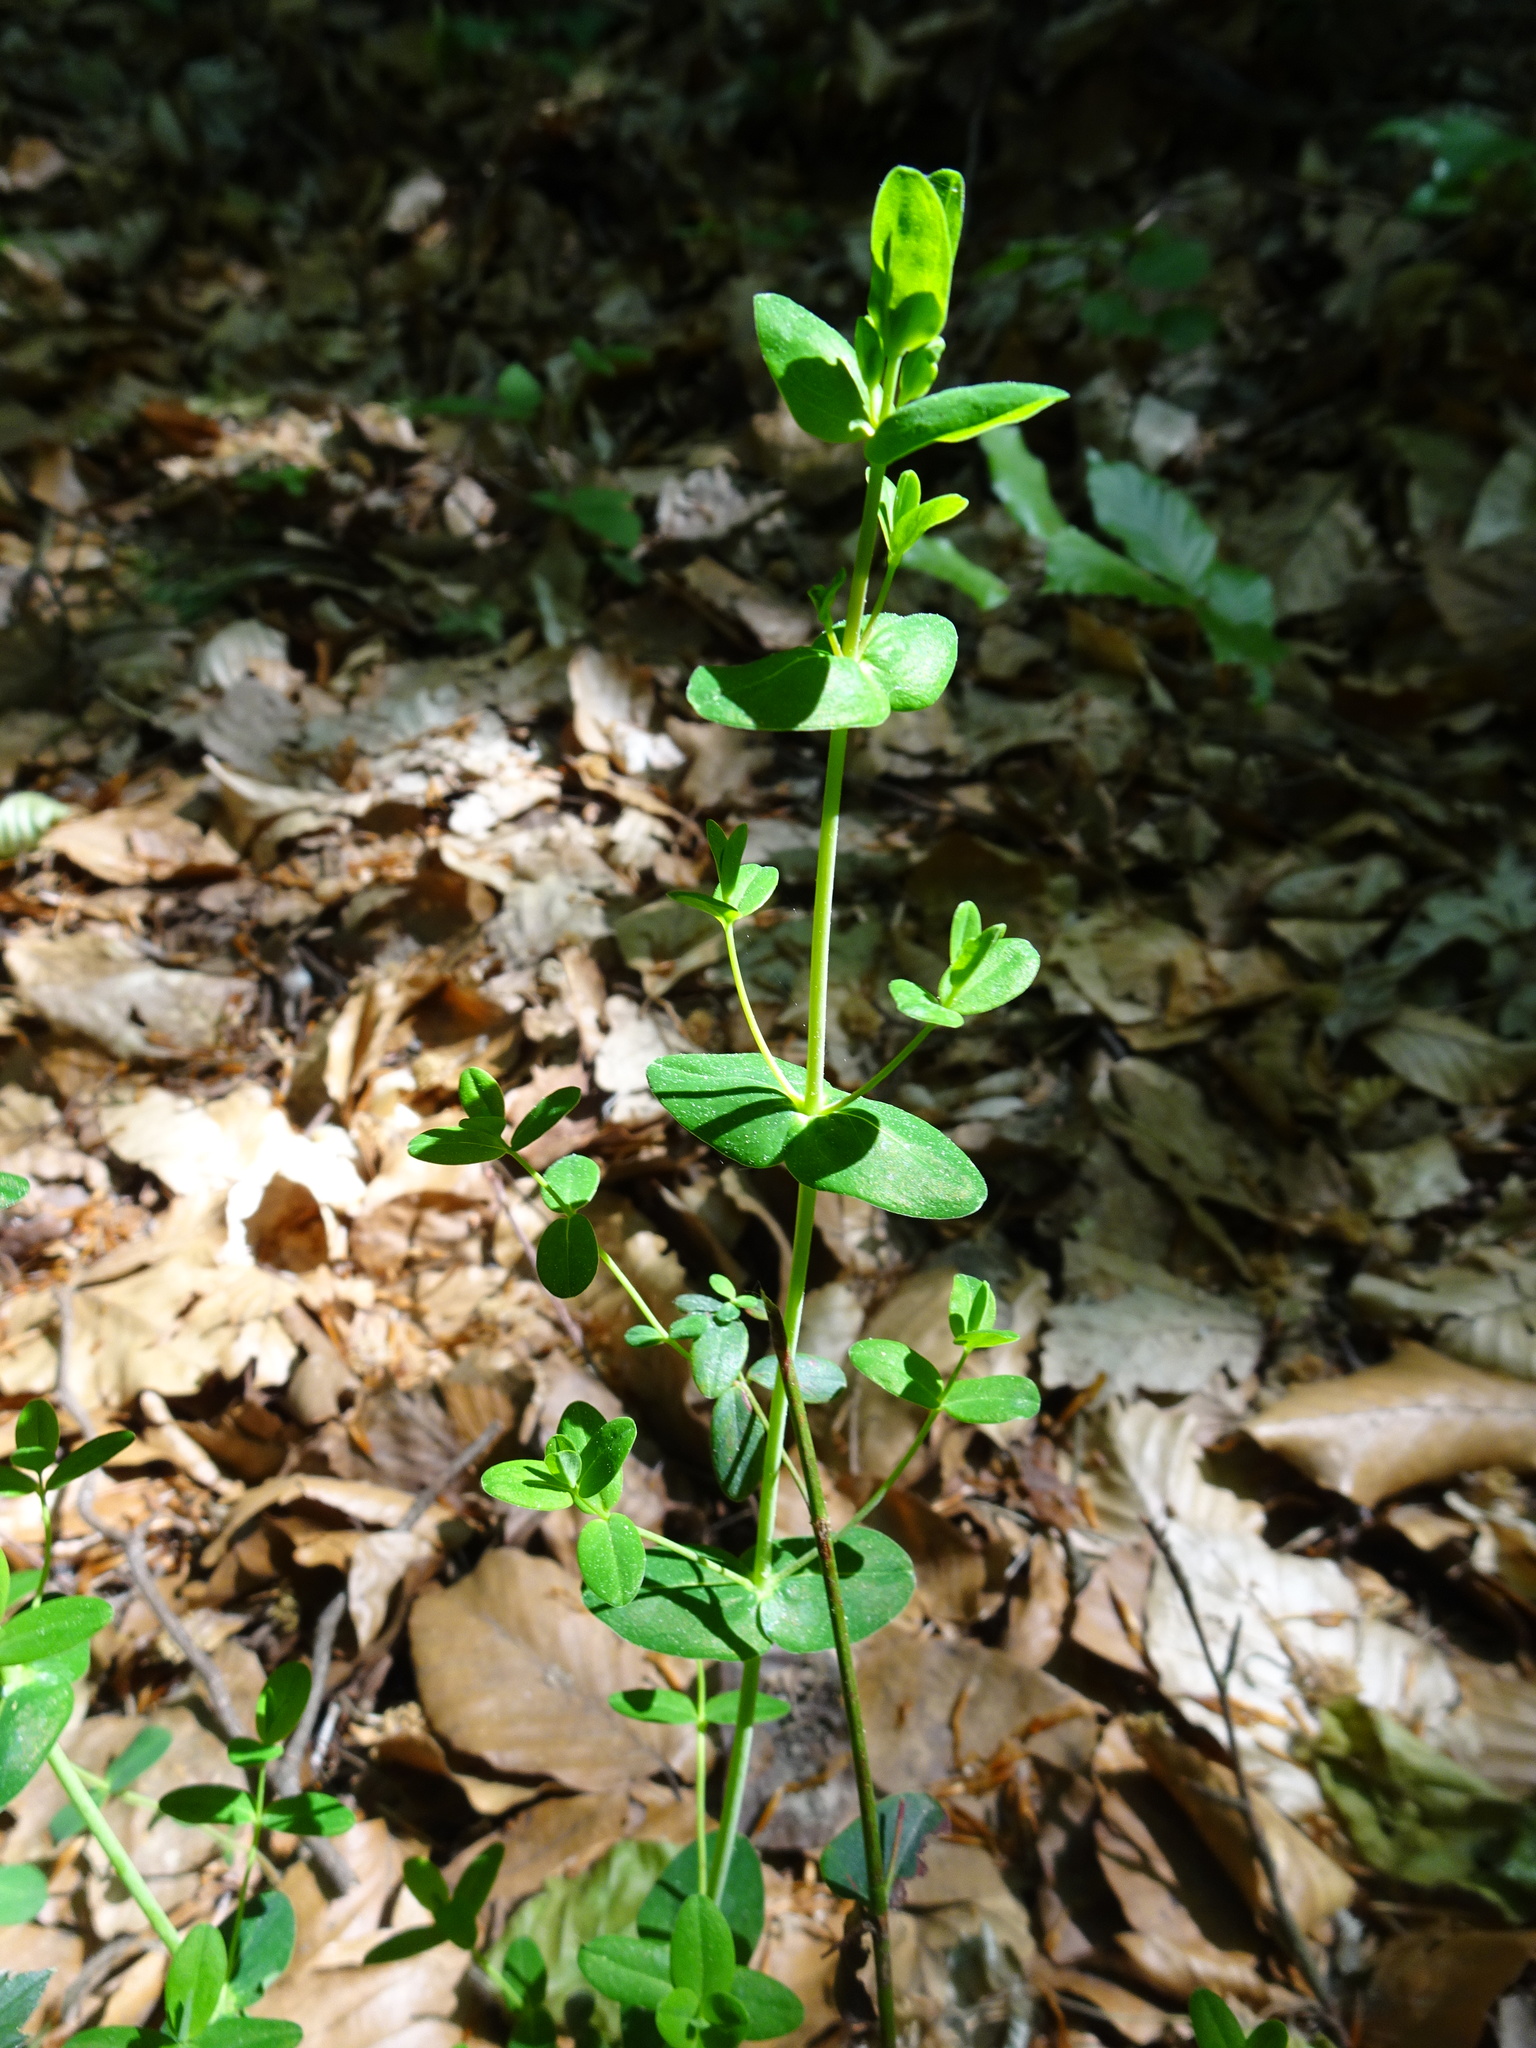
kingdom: Plantae
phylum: Tracheophyta
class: Magnoliopsida
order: Malpighiales
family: Hypericaceae
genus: Hypericum
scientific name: Hypericum pulchrum
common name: Slender st. john's-wort
